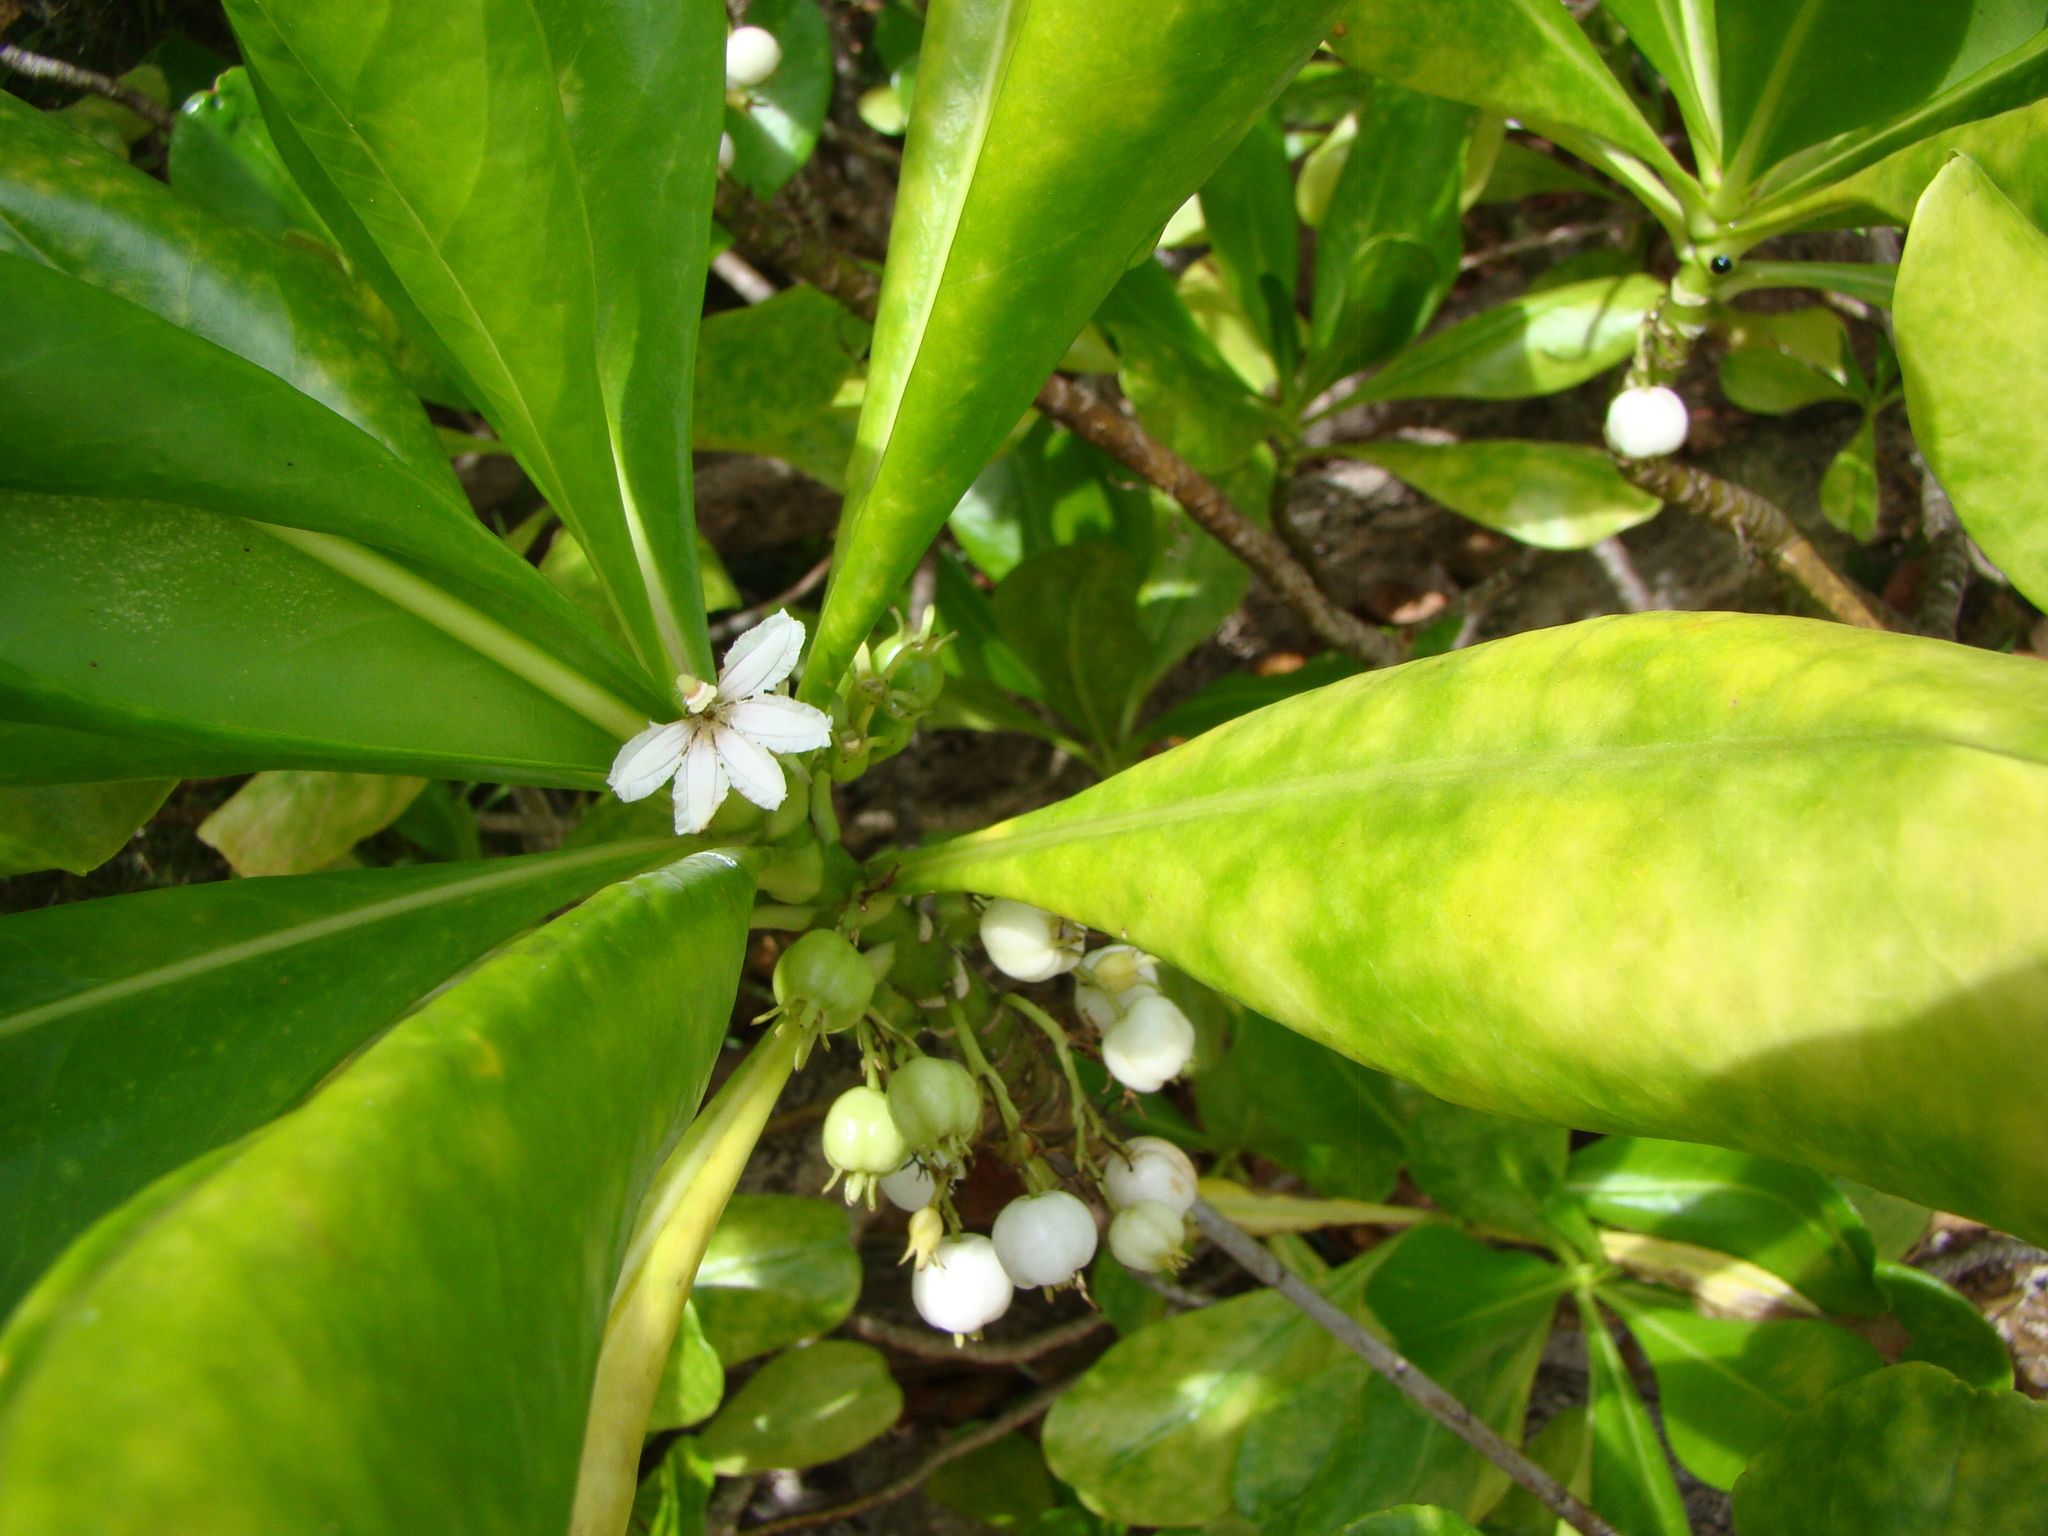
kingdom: Plantae
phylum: Tracheophyta
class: Magnoliopsida
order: Asterales
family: Goodeniaceae
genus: Scaevola
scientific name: Scaevola taccada
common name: Sea lettucetree
